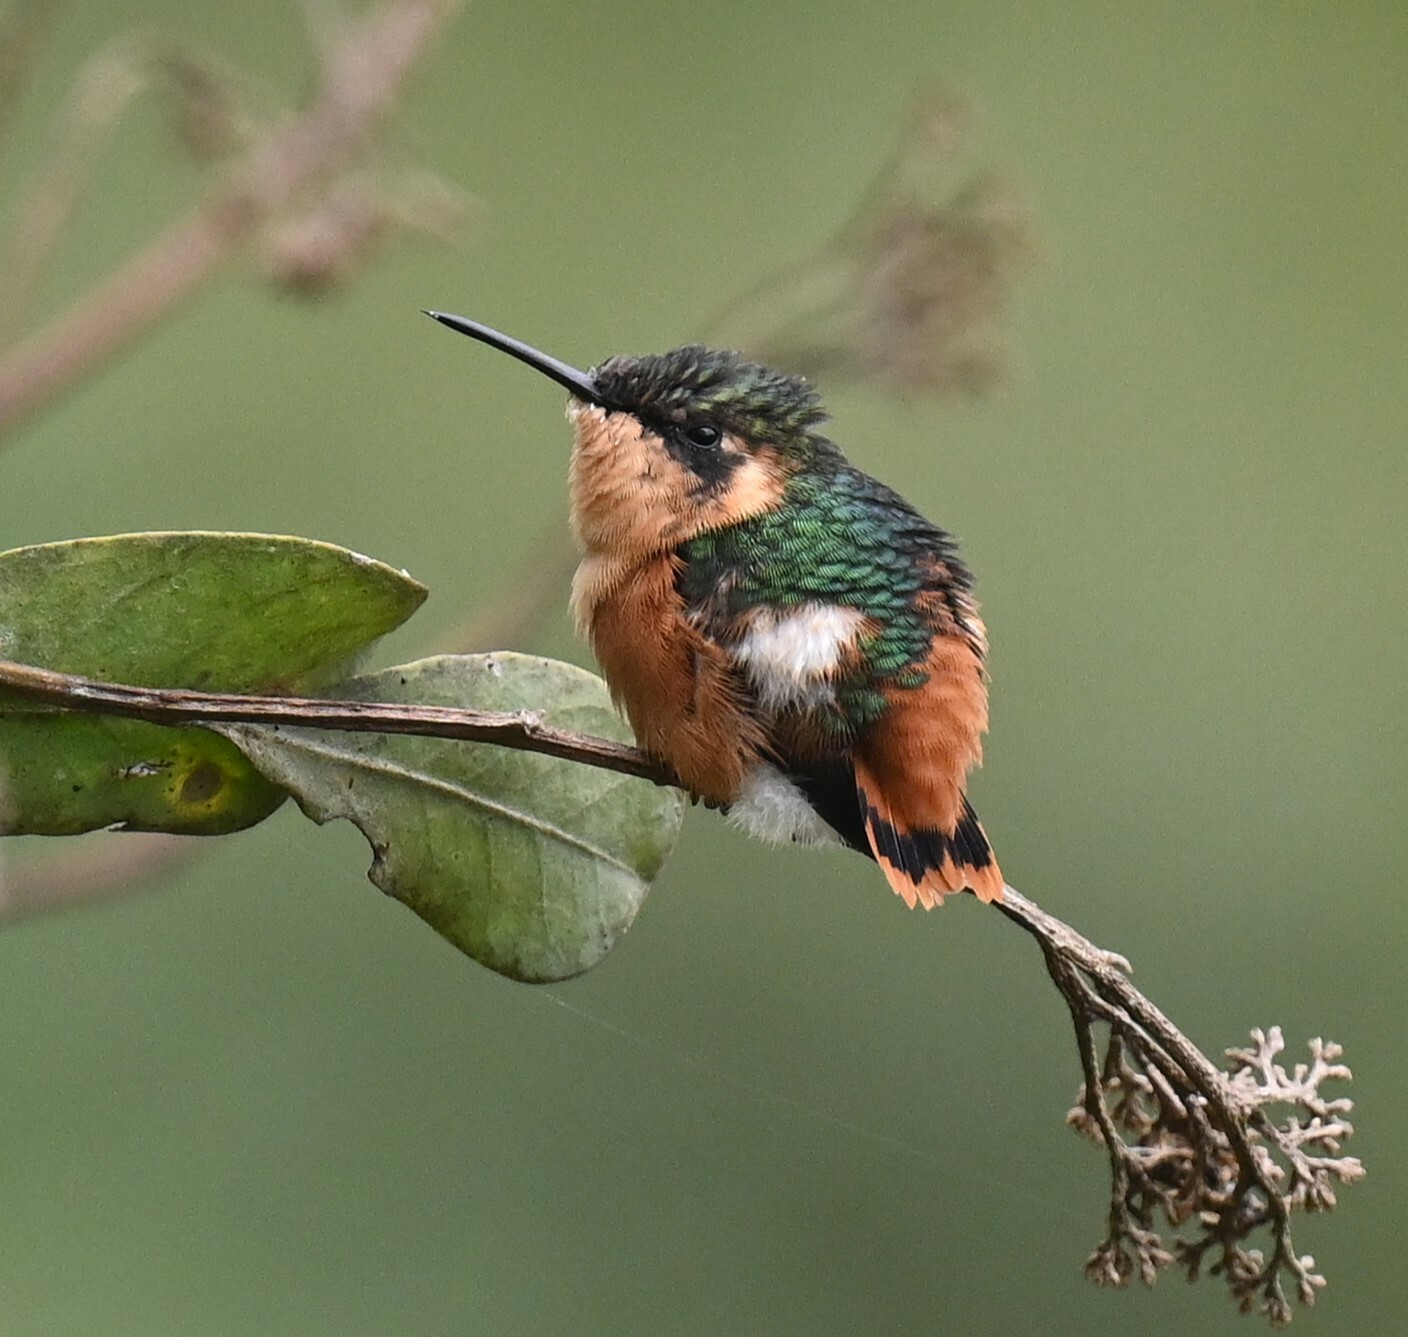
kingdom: Animalia
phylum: Chordata
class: Aves
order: Apodiformes
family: Trochilidae
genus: Chaetocercus
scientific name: Chaetocercus heliodor
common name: Gorgeted woodstar
